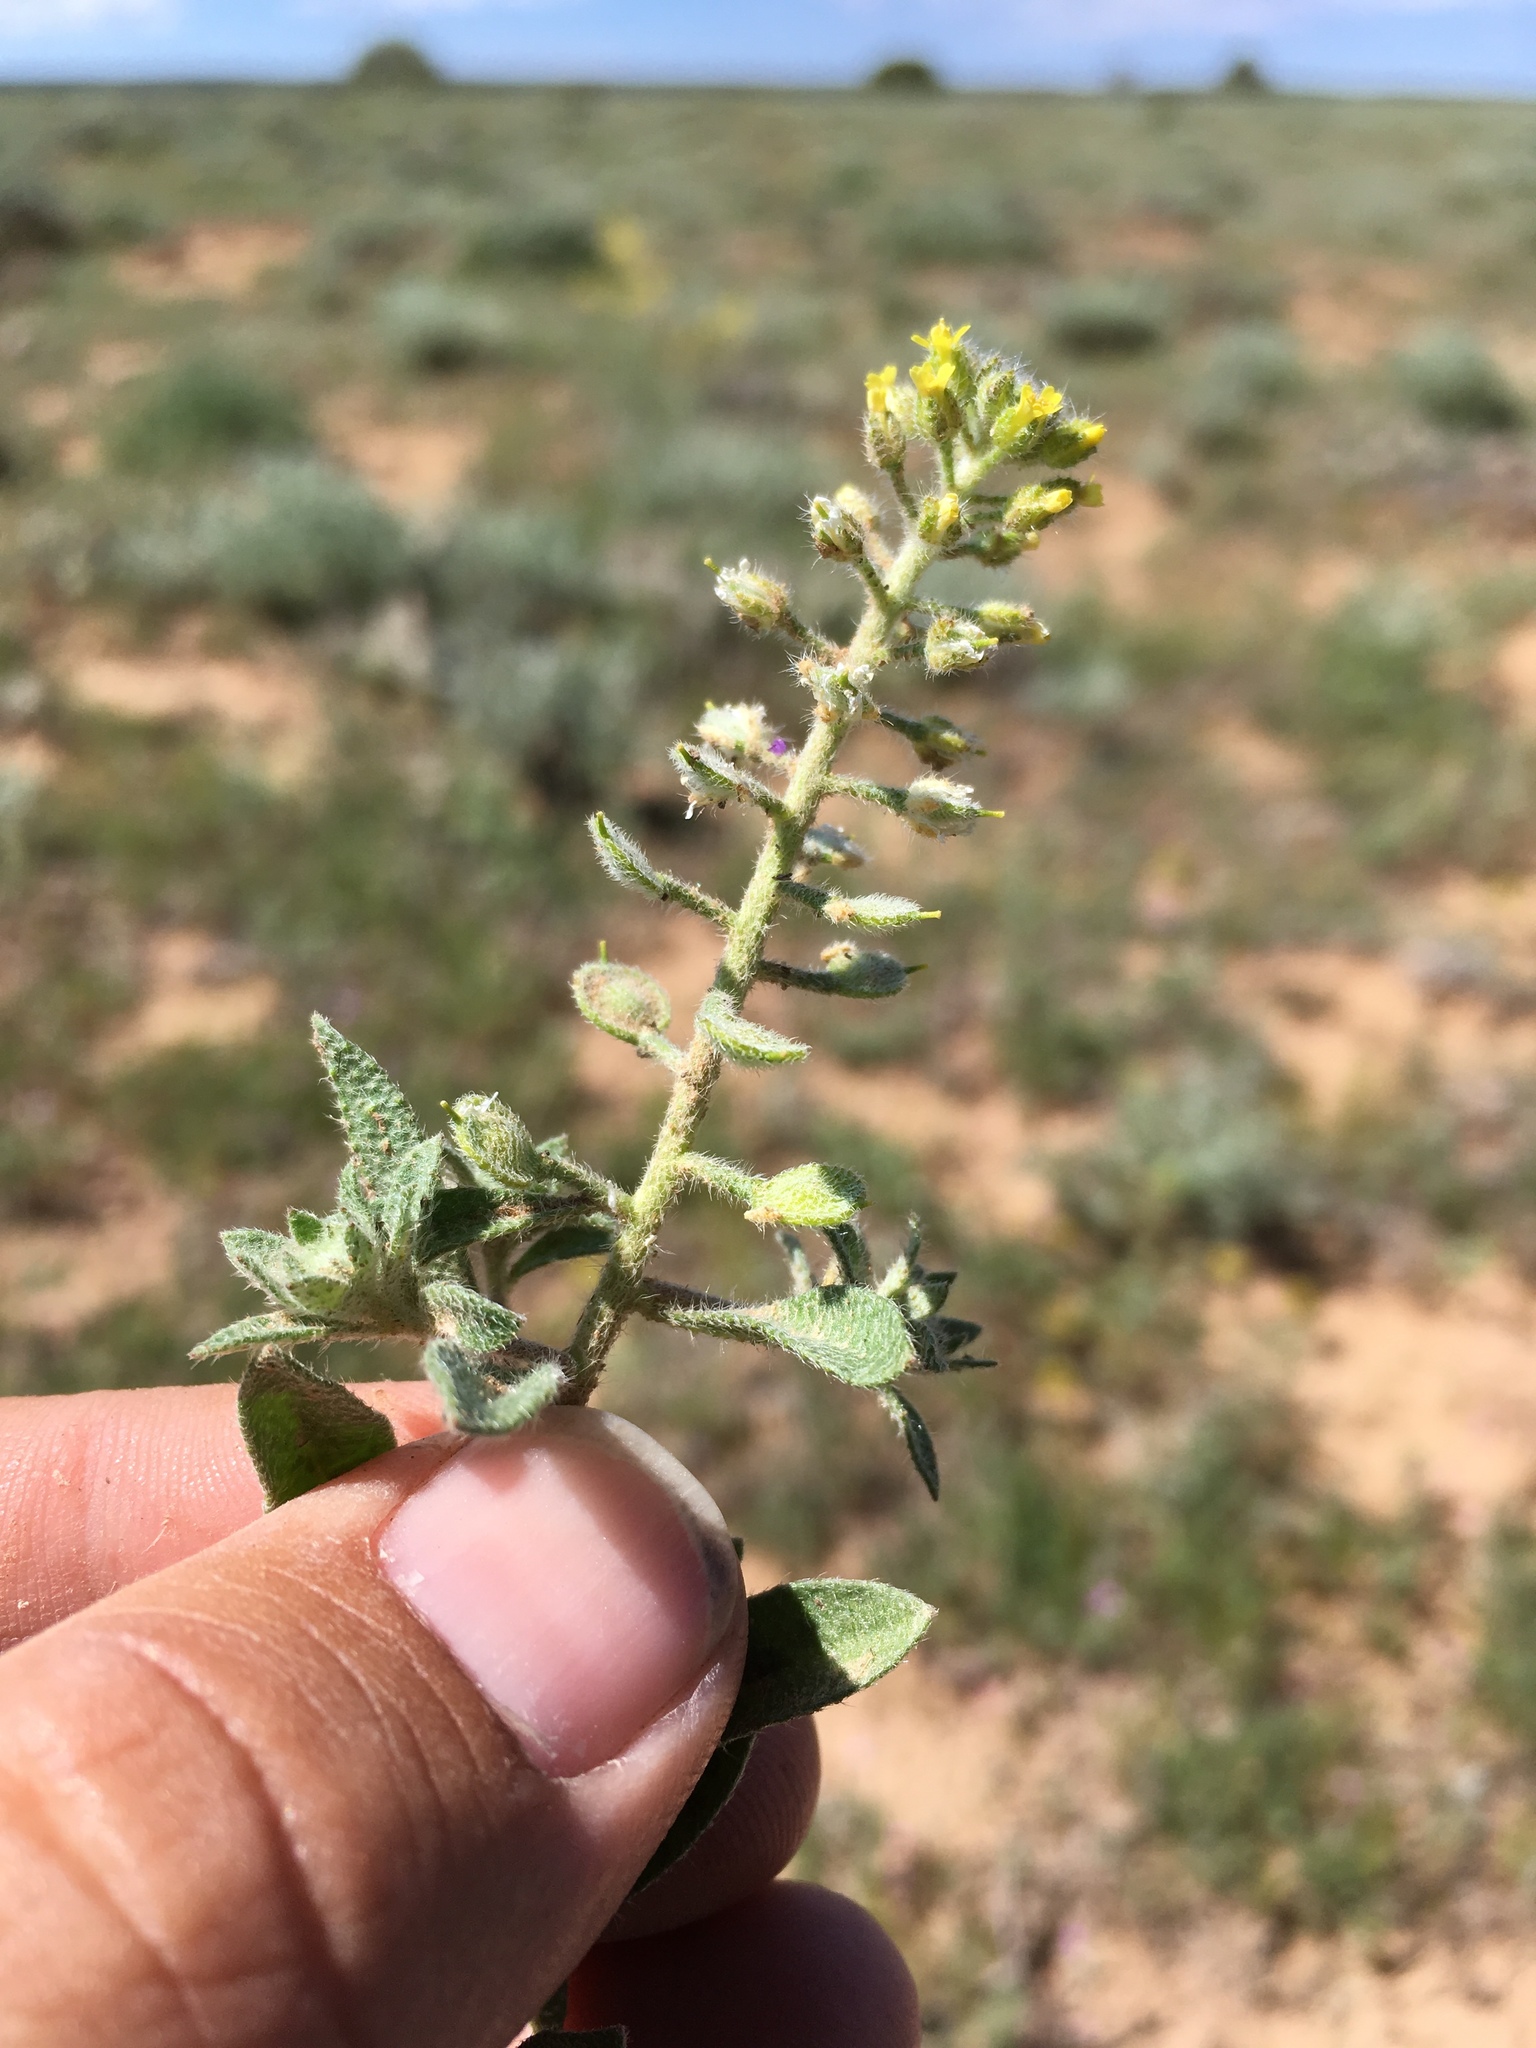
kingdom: Plantae
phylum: Tracheophyta
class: Magnoliopsida
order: Brassicales
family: Brassicaceae
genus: Alyssum
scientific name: Alyssum simplex
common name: Alyssum
